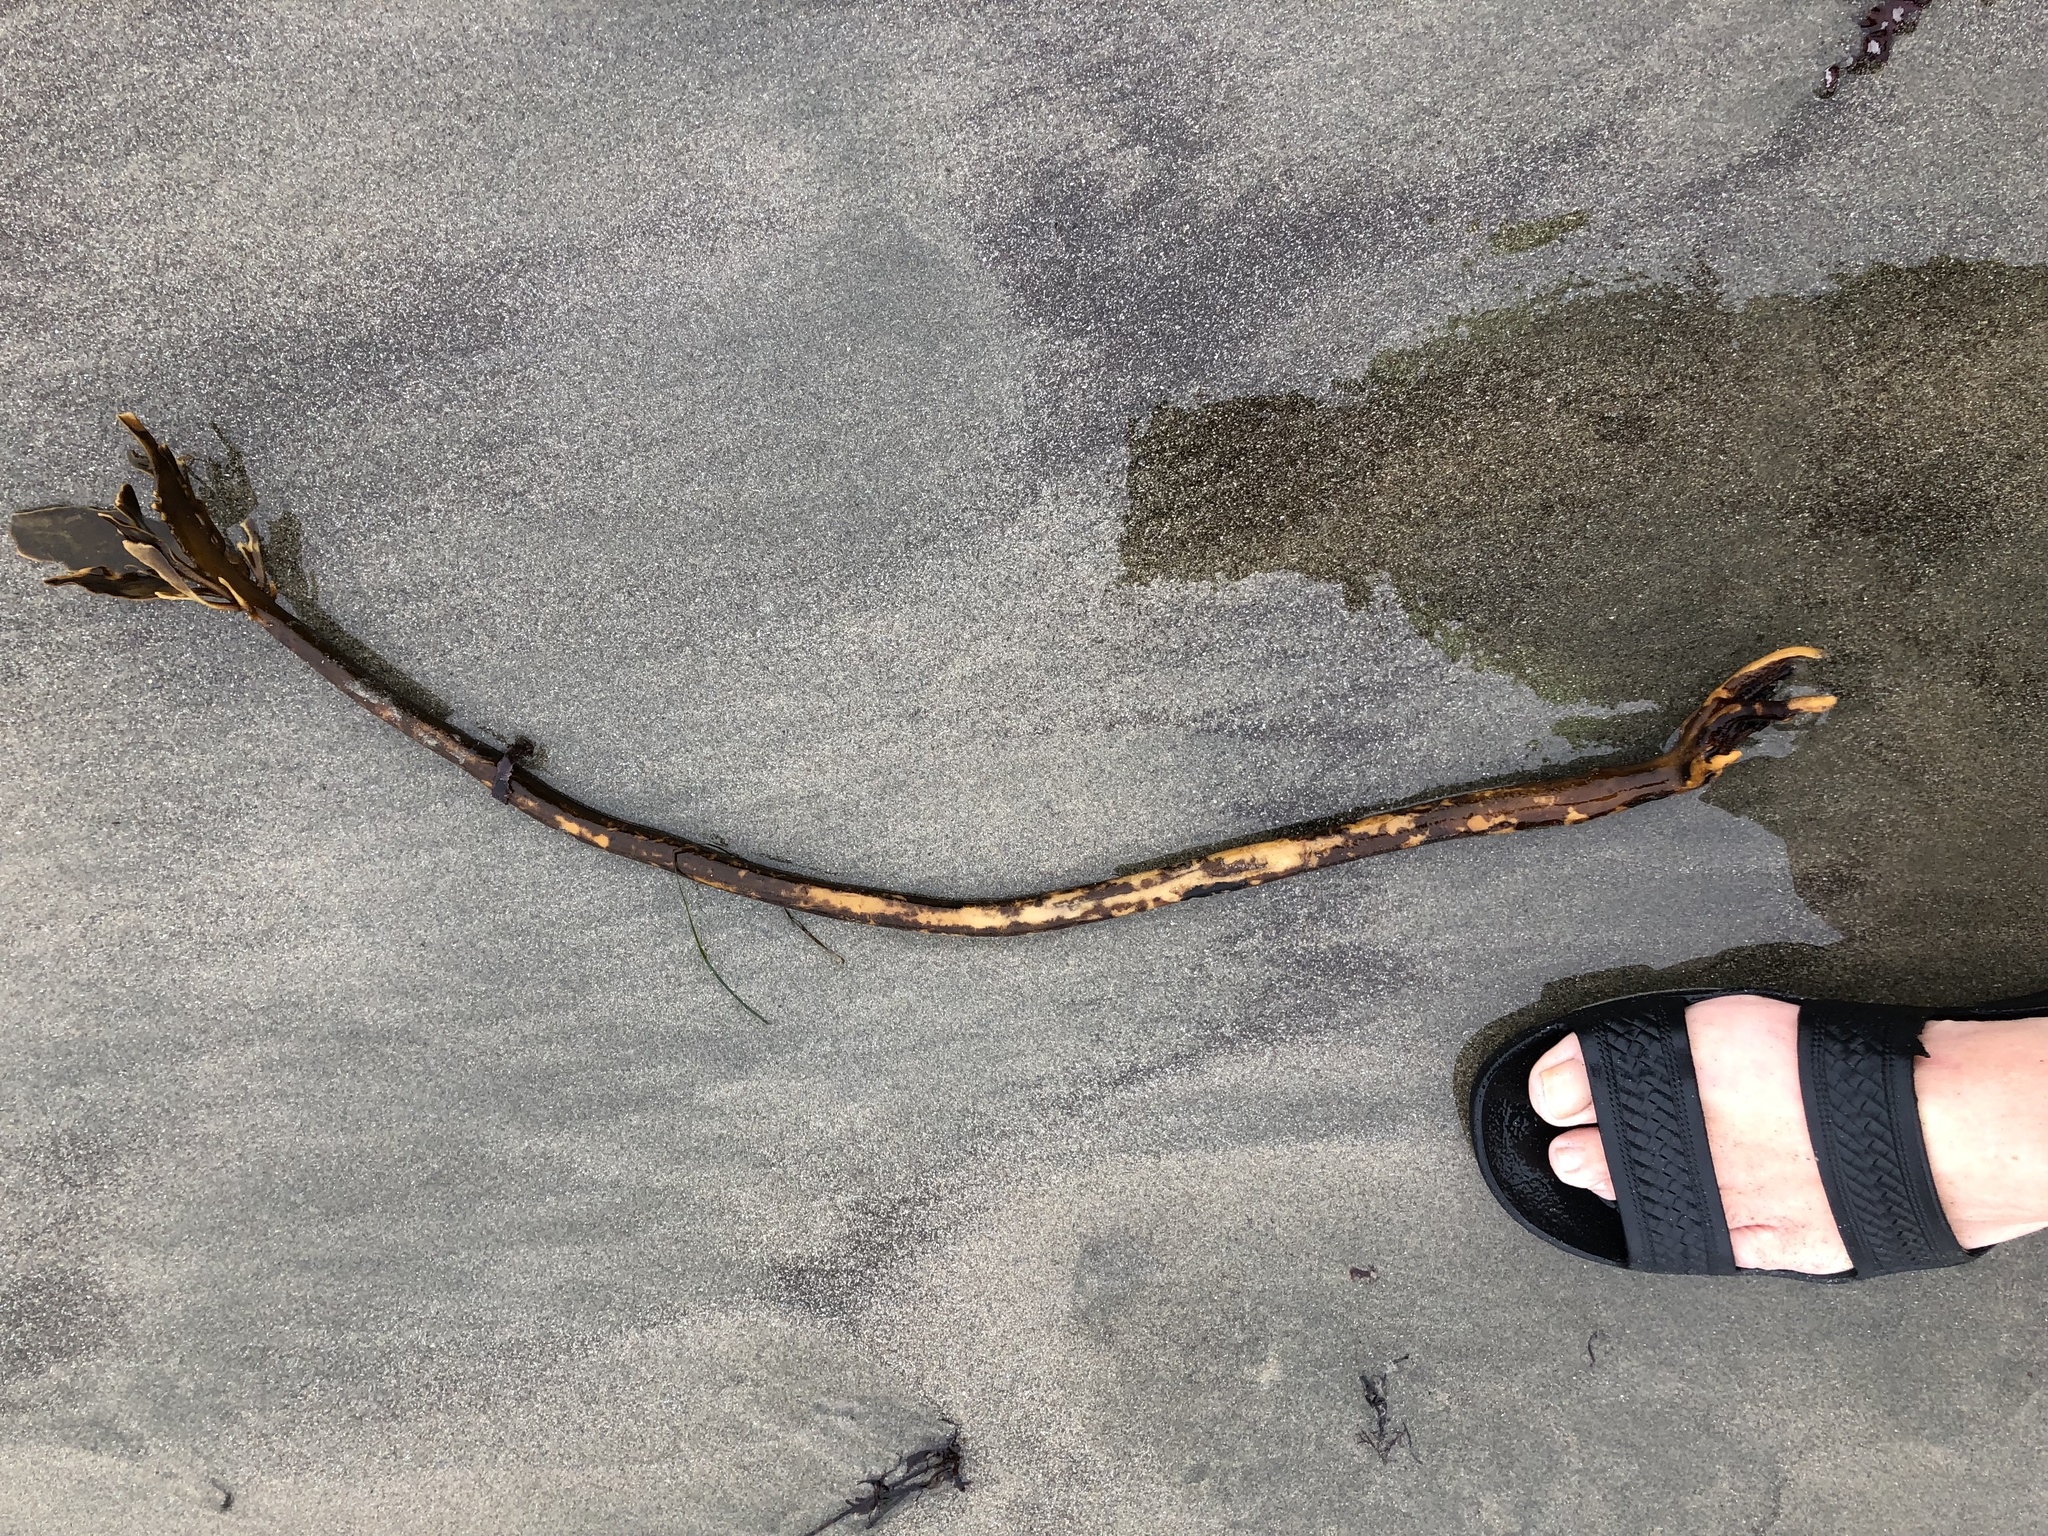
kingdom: Chromista
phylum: Ochrophyta
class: Phaeophyceae
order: Laminariales
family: Alariaceae
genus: Pterygophora
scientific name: Pterygophora californica
